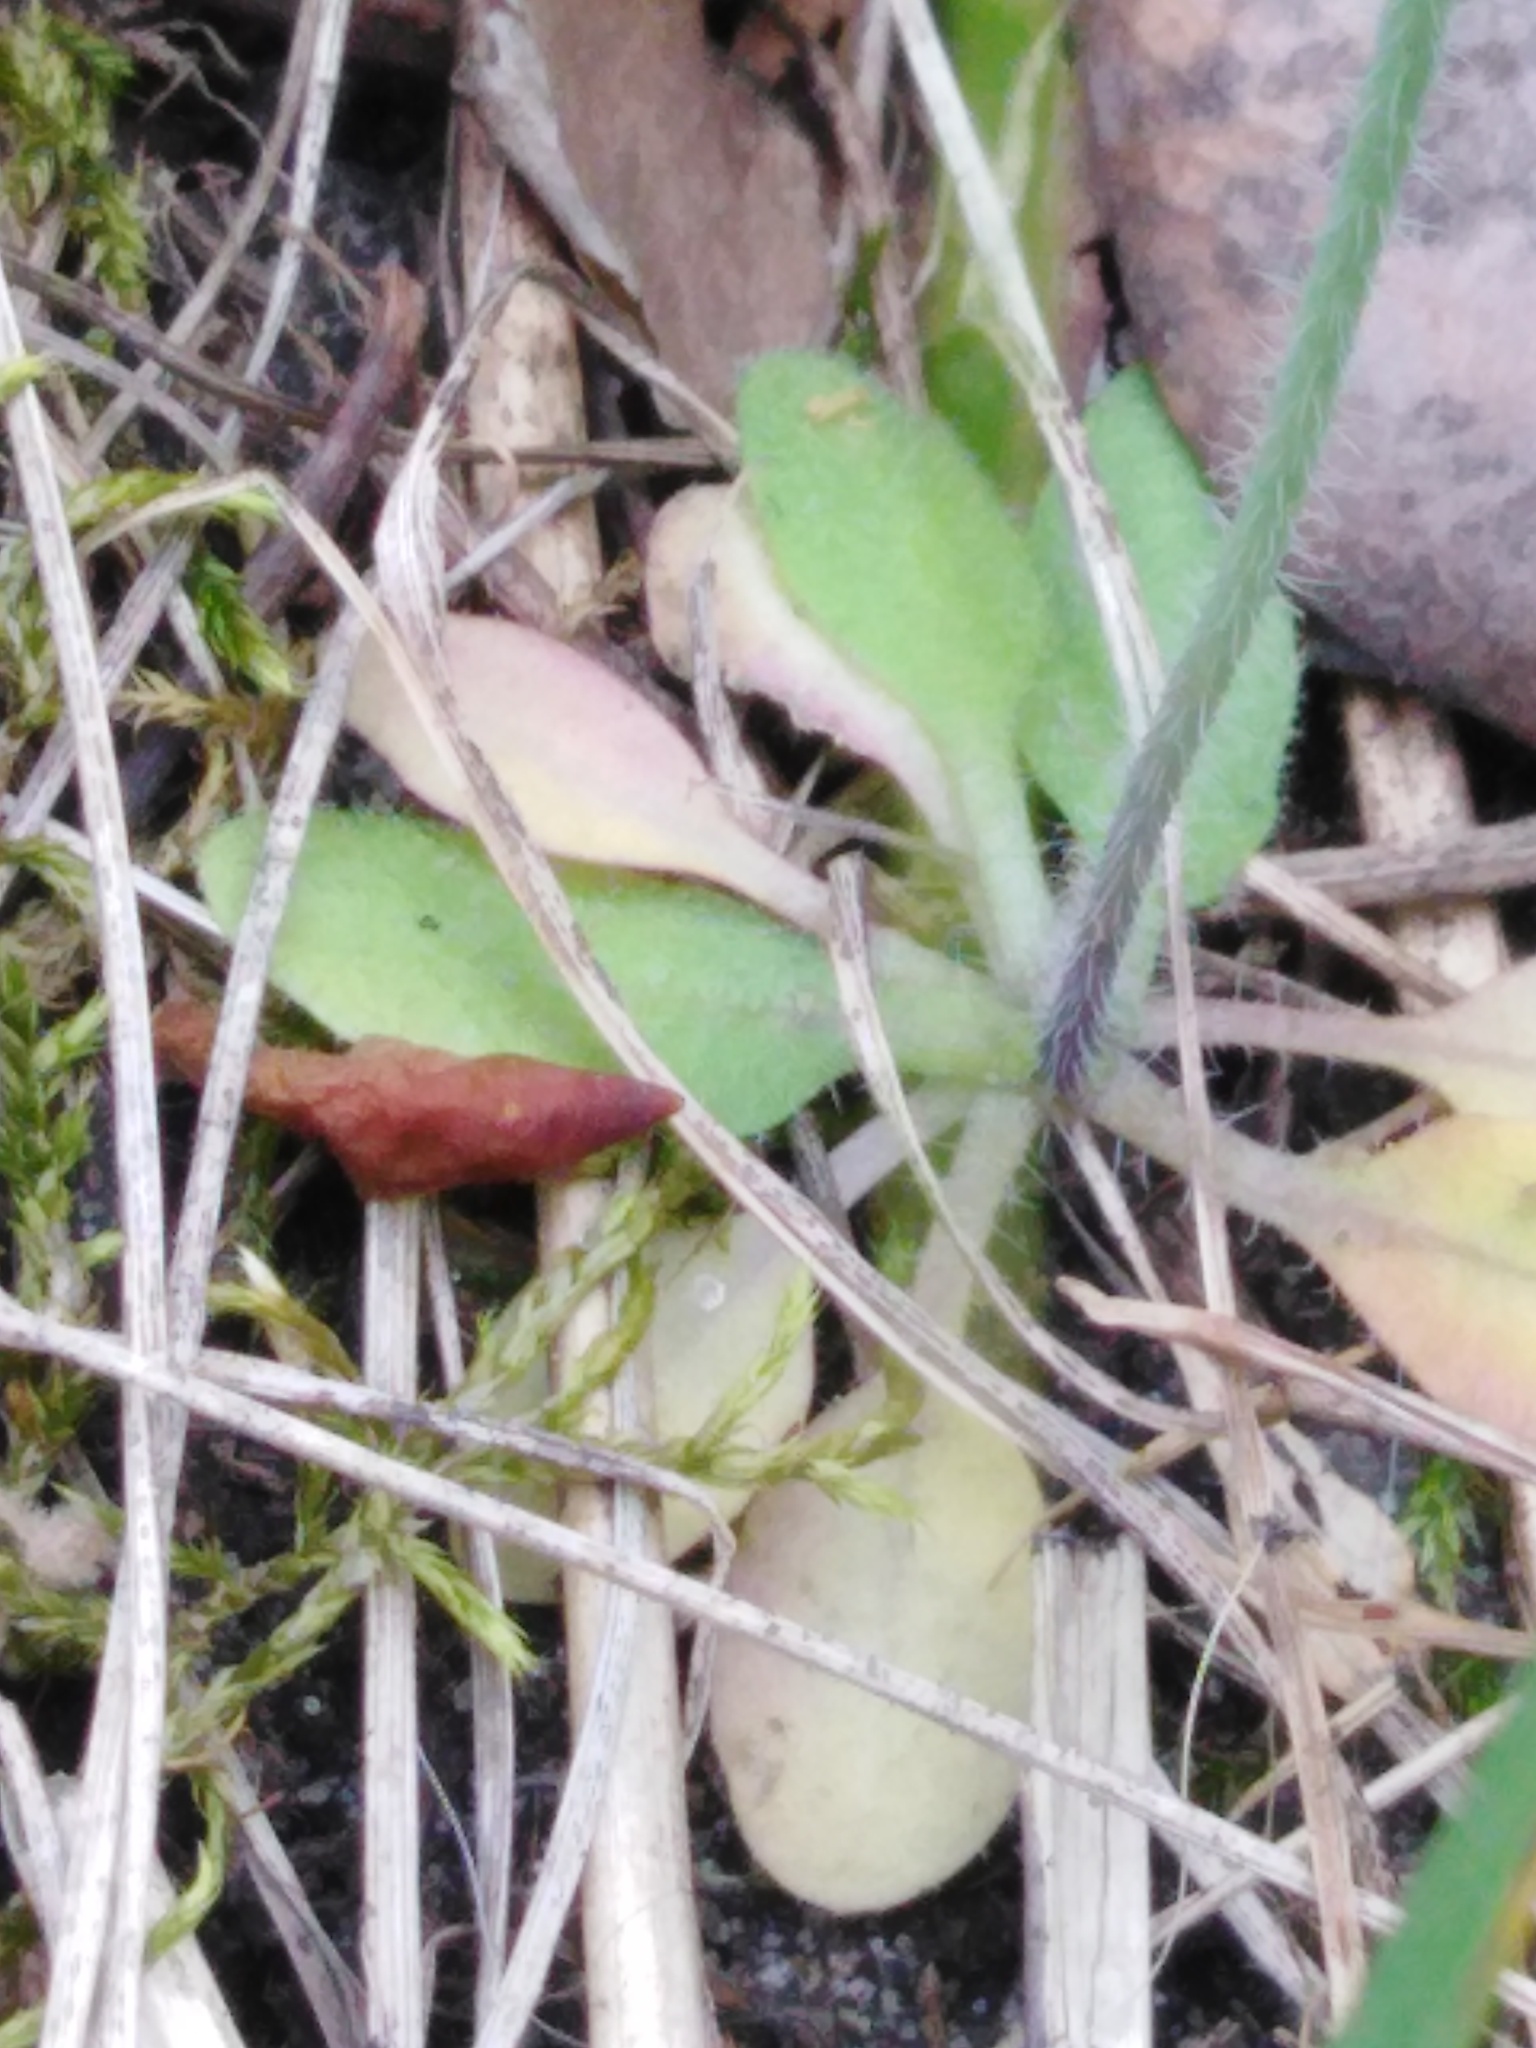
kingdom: Plantae
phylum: Tracheophyta
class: Magnoliopsida
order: Brassicales
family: Brassicaceae
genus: Arabidopsis
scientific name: Arabidopsis thaliana
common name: Thale cress
